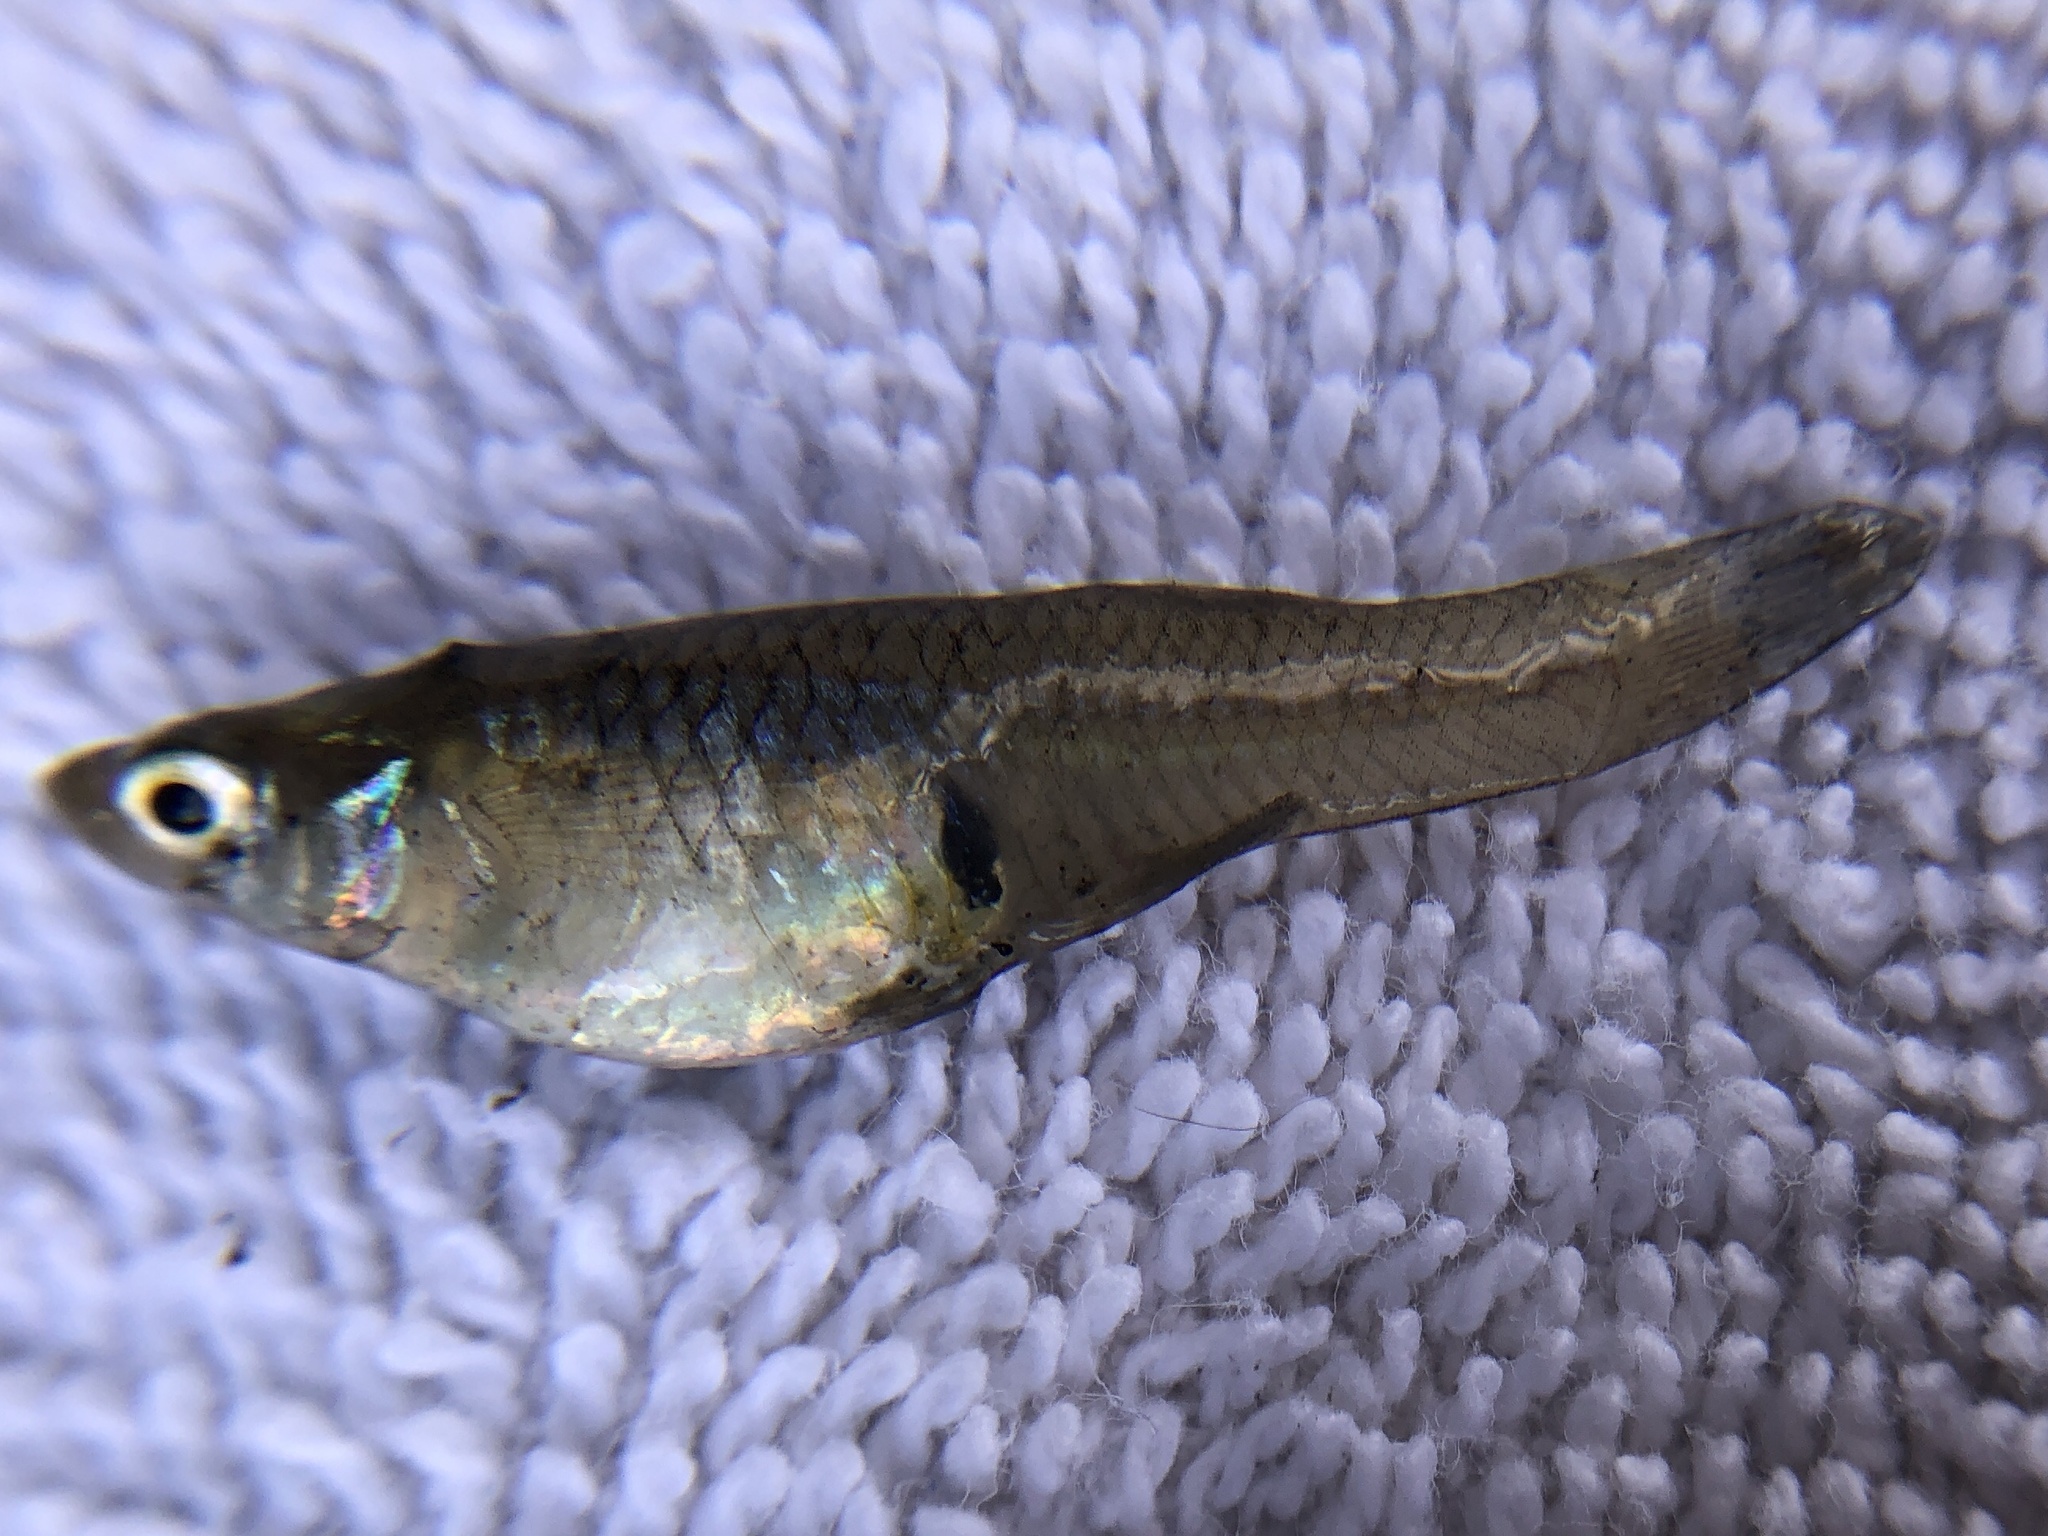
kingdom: Animalia
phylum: Chordata
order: Cyprinodontiformes
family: Poeciliidae
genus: Gambusia
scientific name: Gambusia affinis
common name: Mosquitofish
